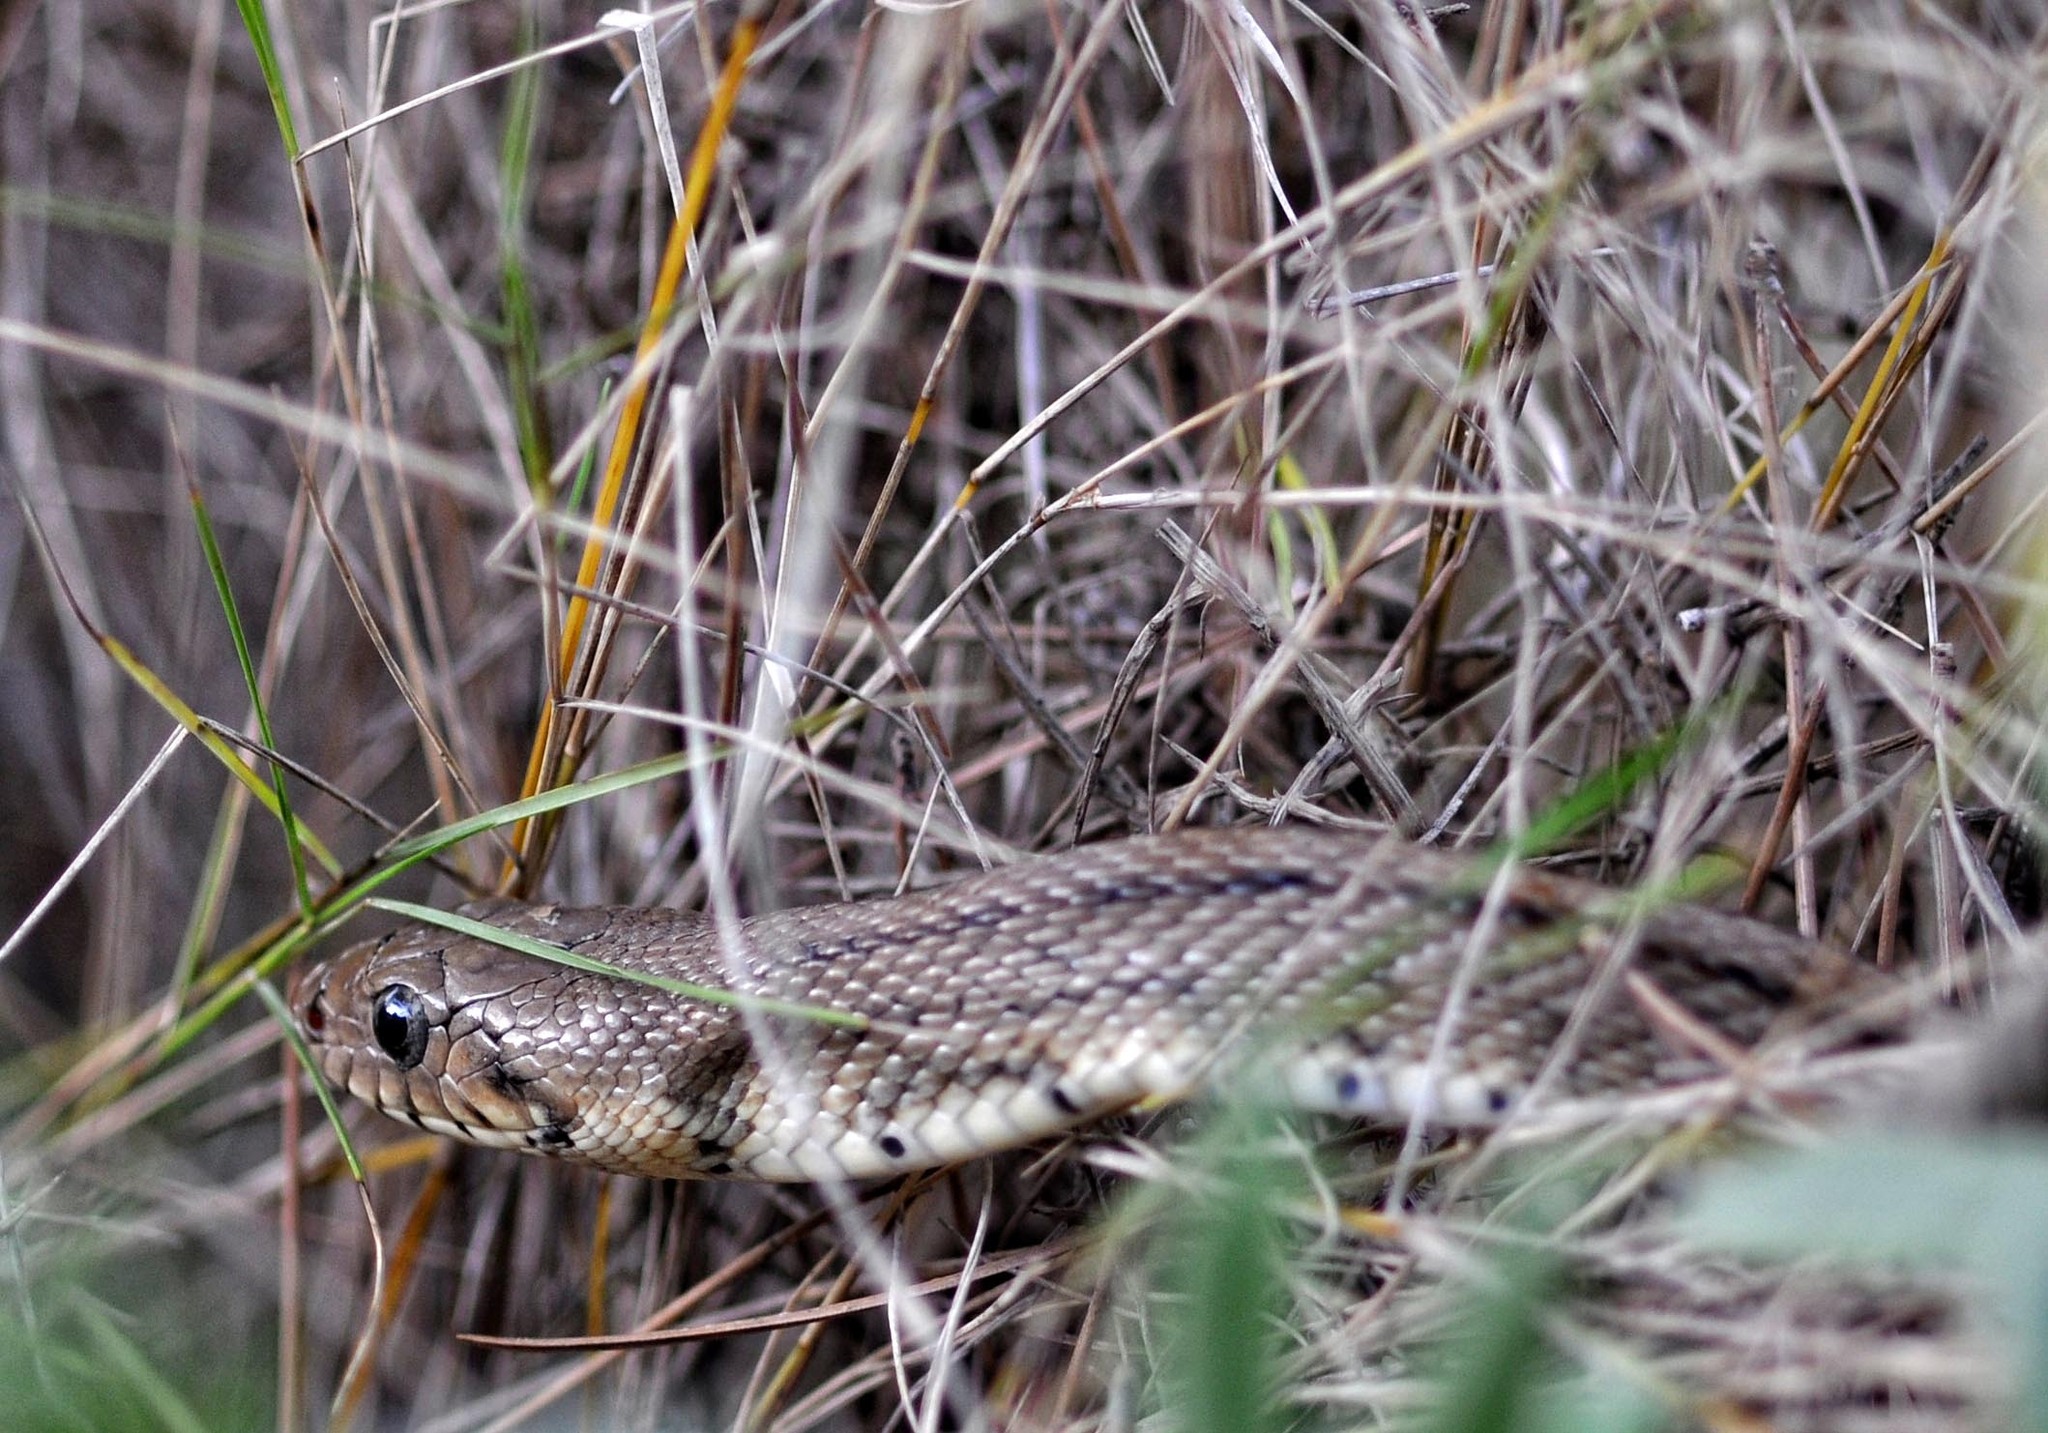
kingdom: Animalia
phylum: Chordata
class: Squamata
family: Colubridae
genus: Zamenis
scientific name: Zamenis scalaris
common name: Ladder snakes
